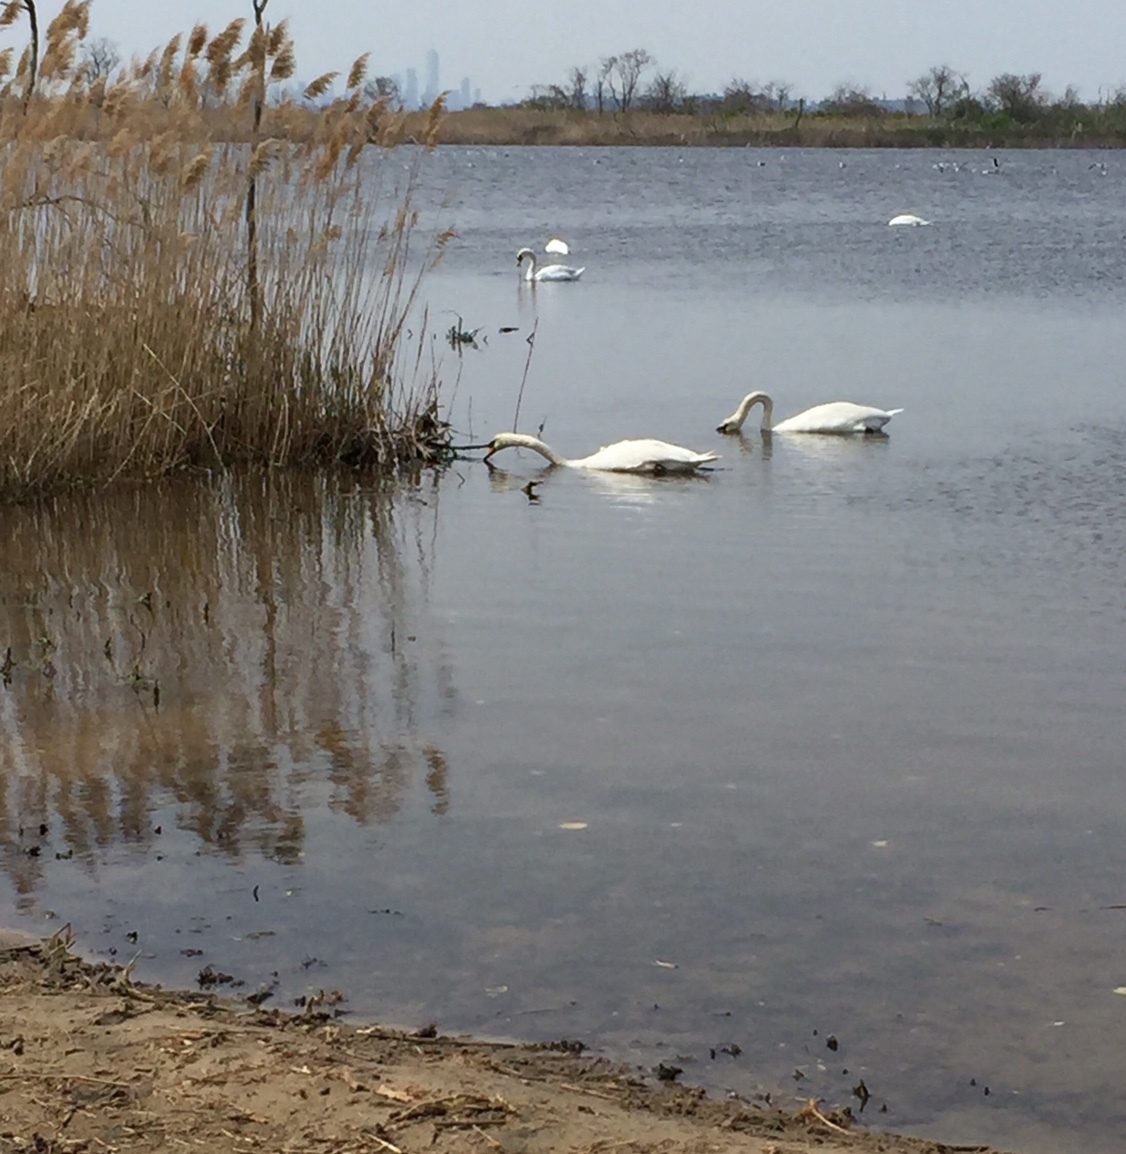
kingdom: Animalia
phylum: Chordata
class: Aves
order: Anseriformes
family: Anatidae
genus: Cygnus
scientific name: Cygnus olor
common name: Mute swan
